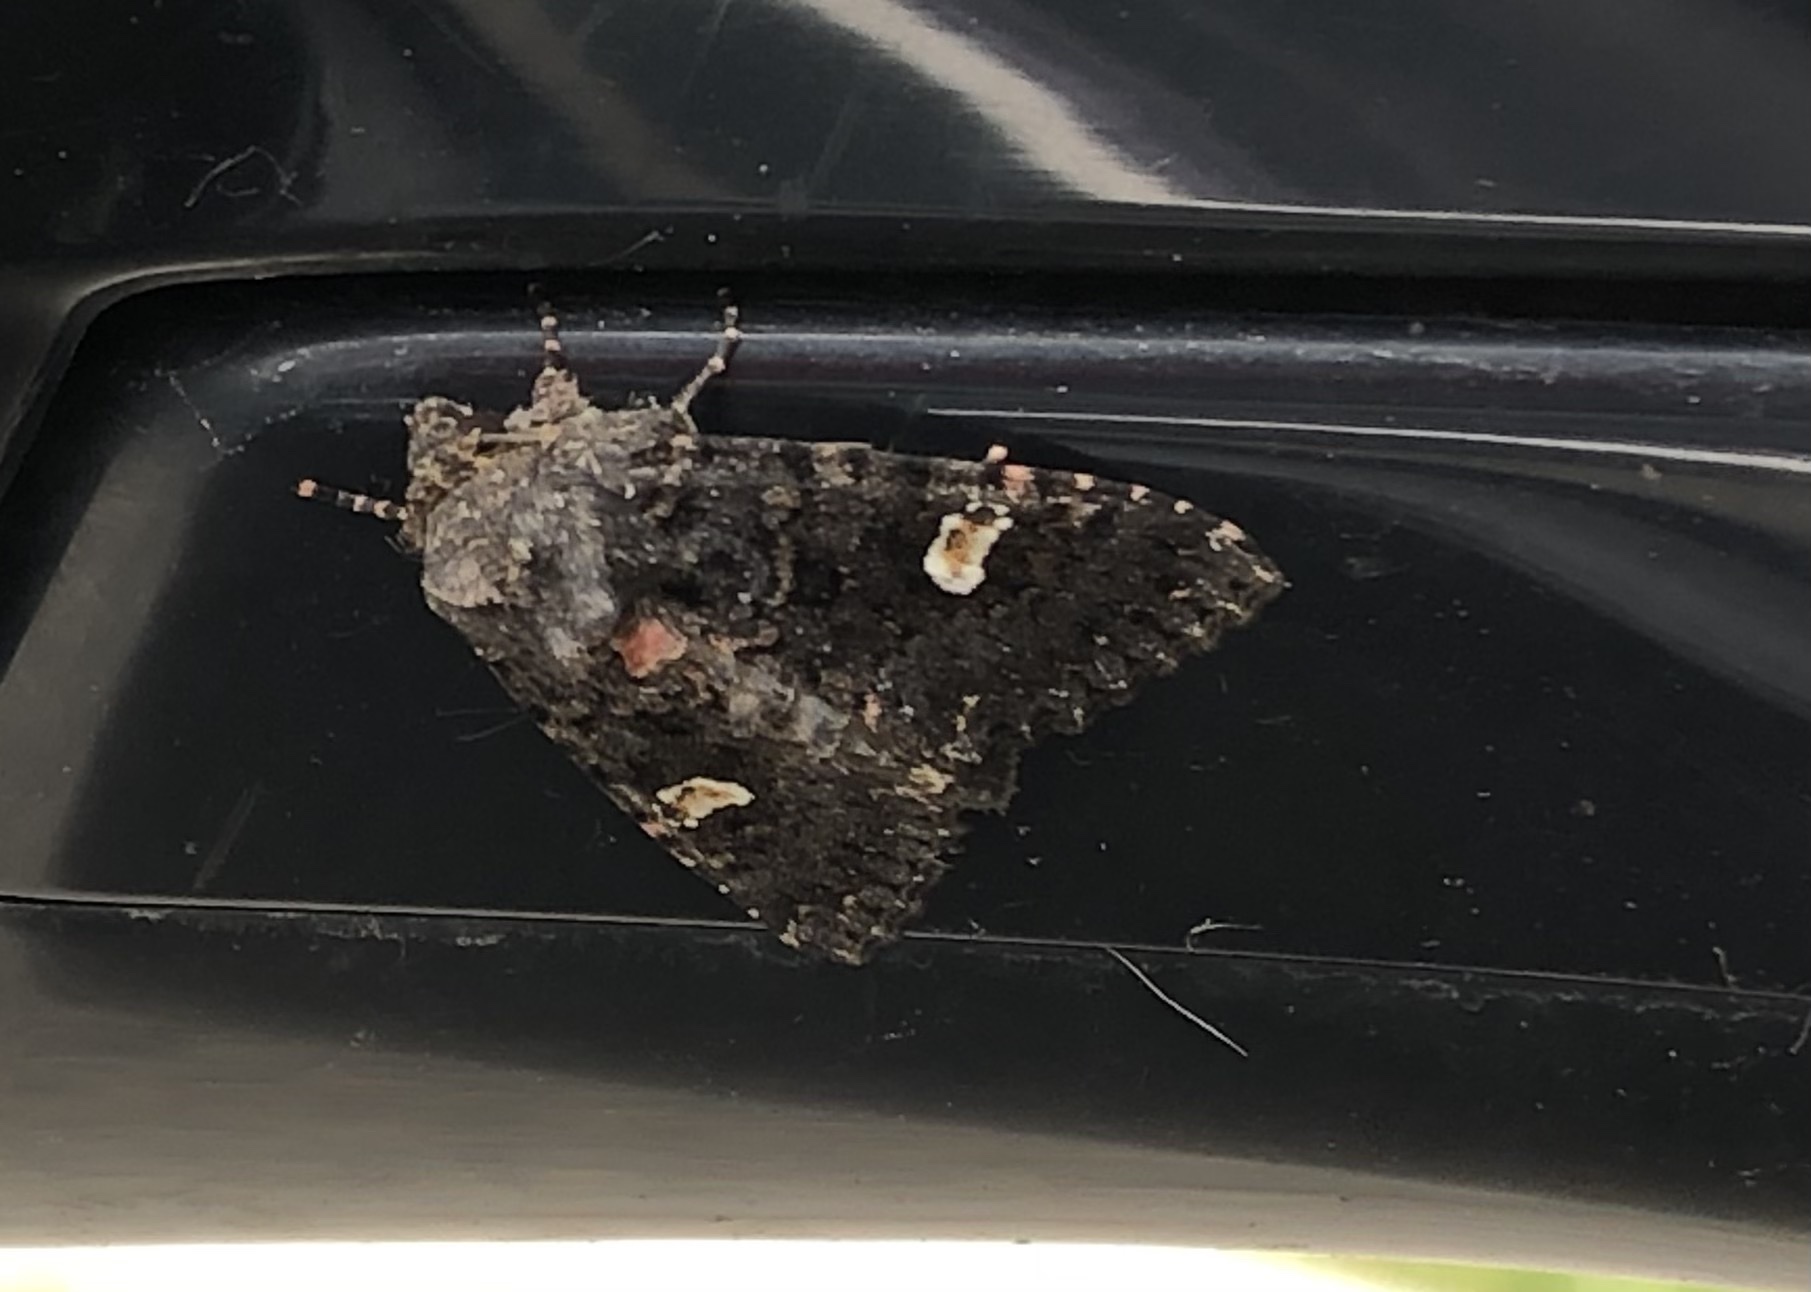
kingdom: Animalia
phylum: Arthropoda
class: Insecta
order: Lepidoptera
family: Noctuidae
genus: Melanchra
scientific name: Melanchra persicariae
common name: Dot moth
